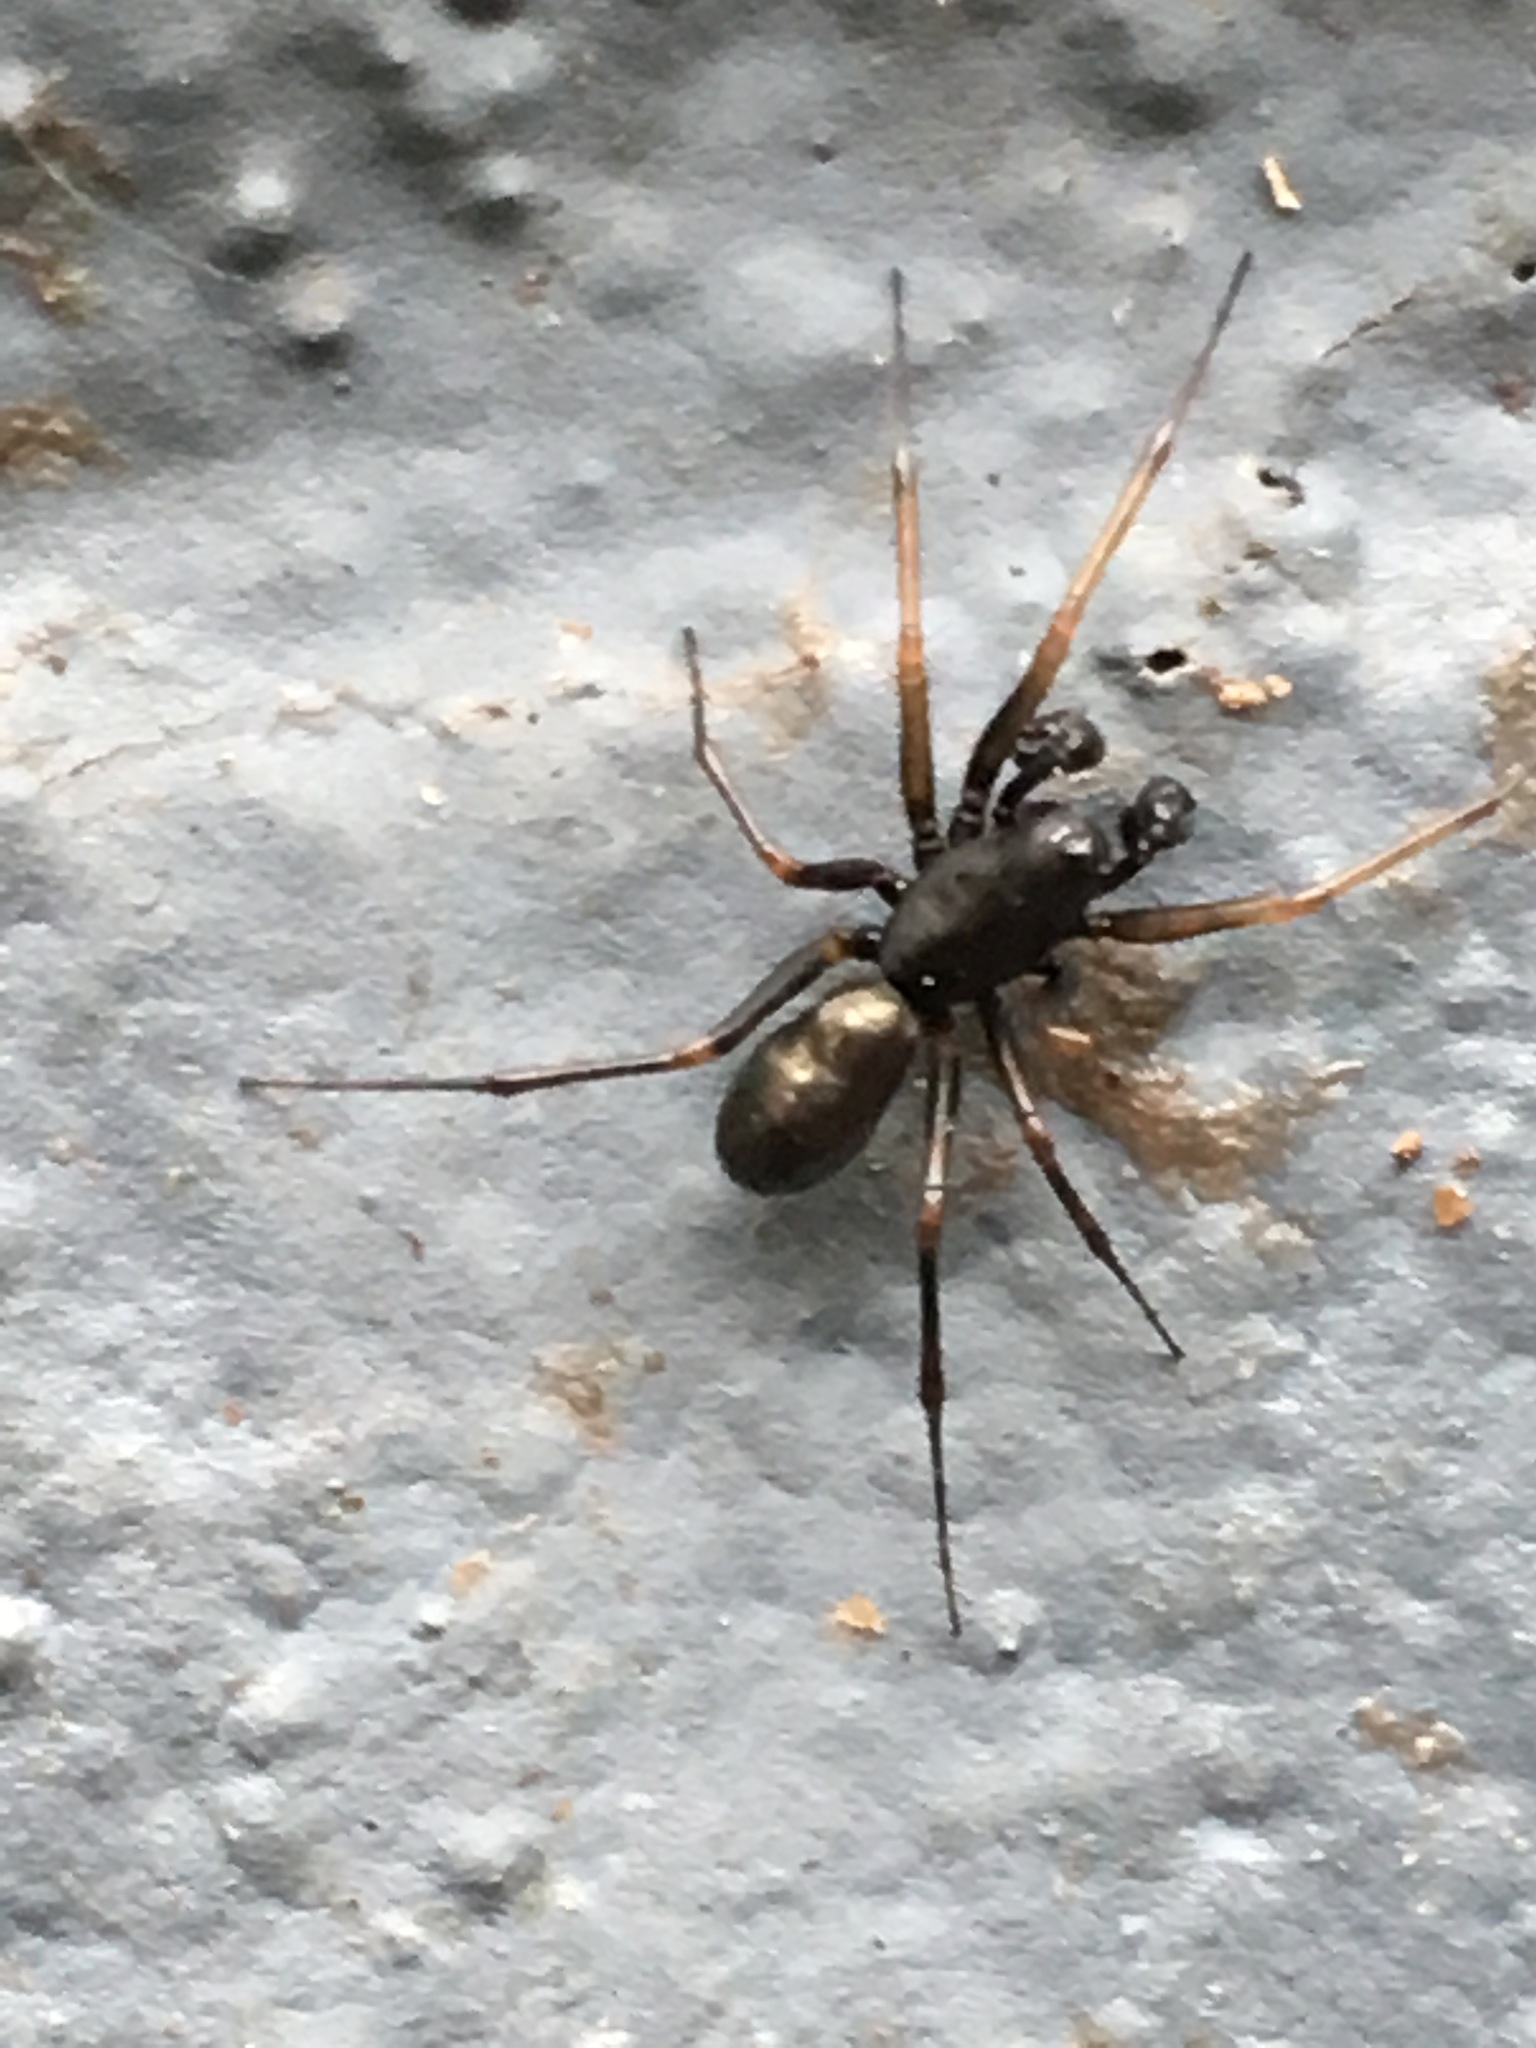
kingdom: Animalia
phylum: Arthropoda
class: Arachnida
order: Araneae
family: Linyphiidae
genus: Neriene
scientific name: Neriene clathrata
